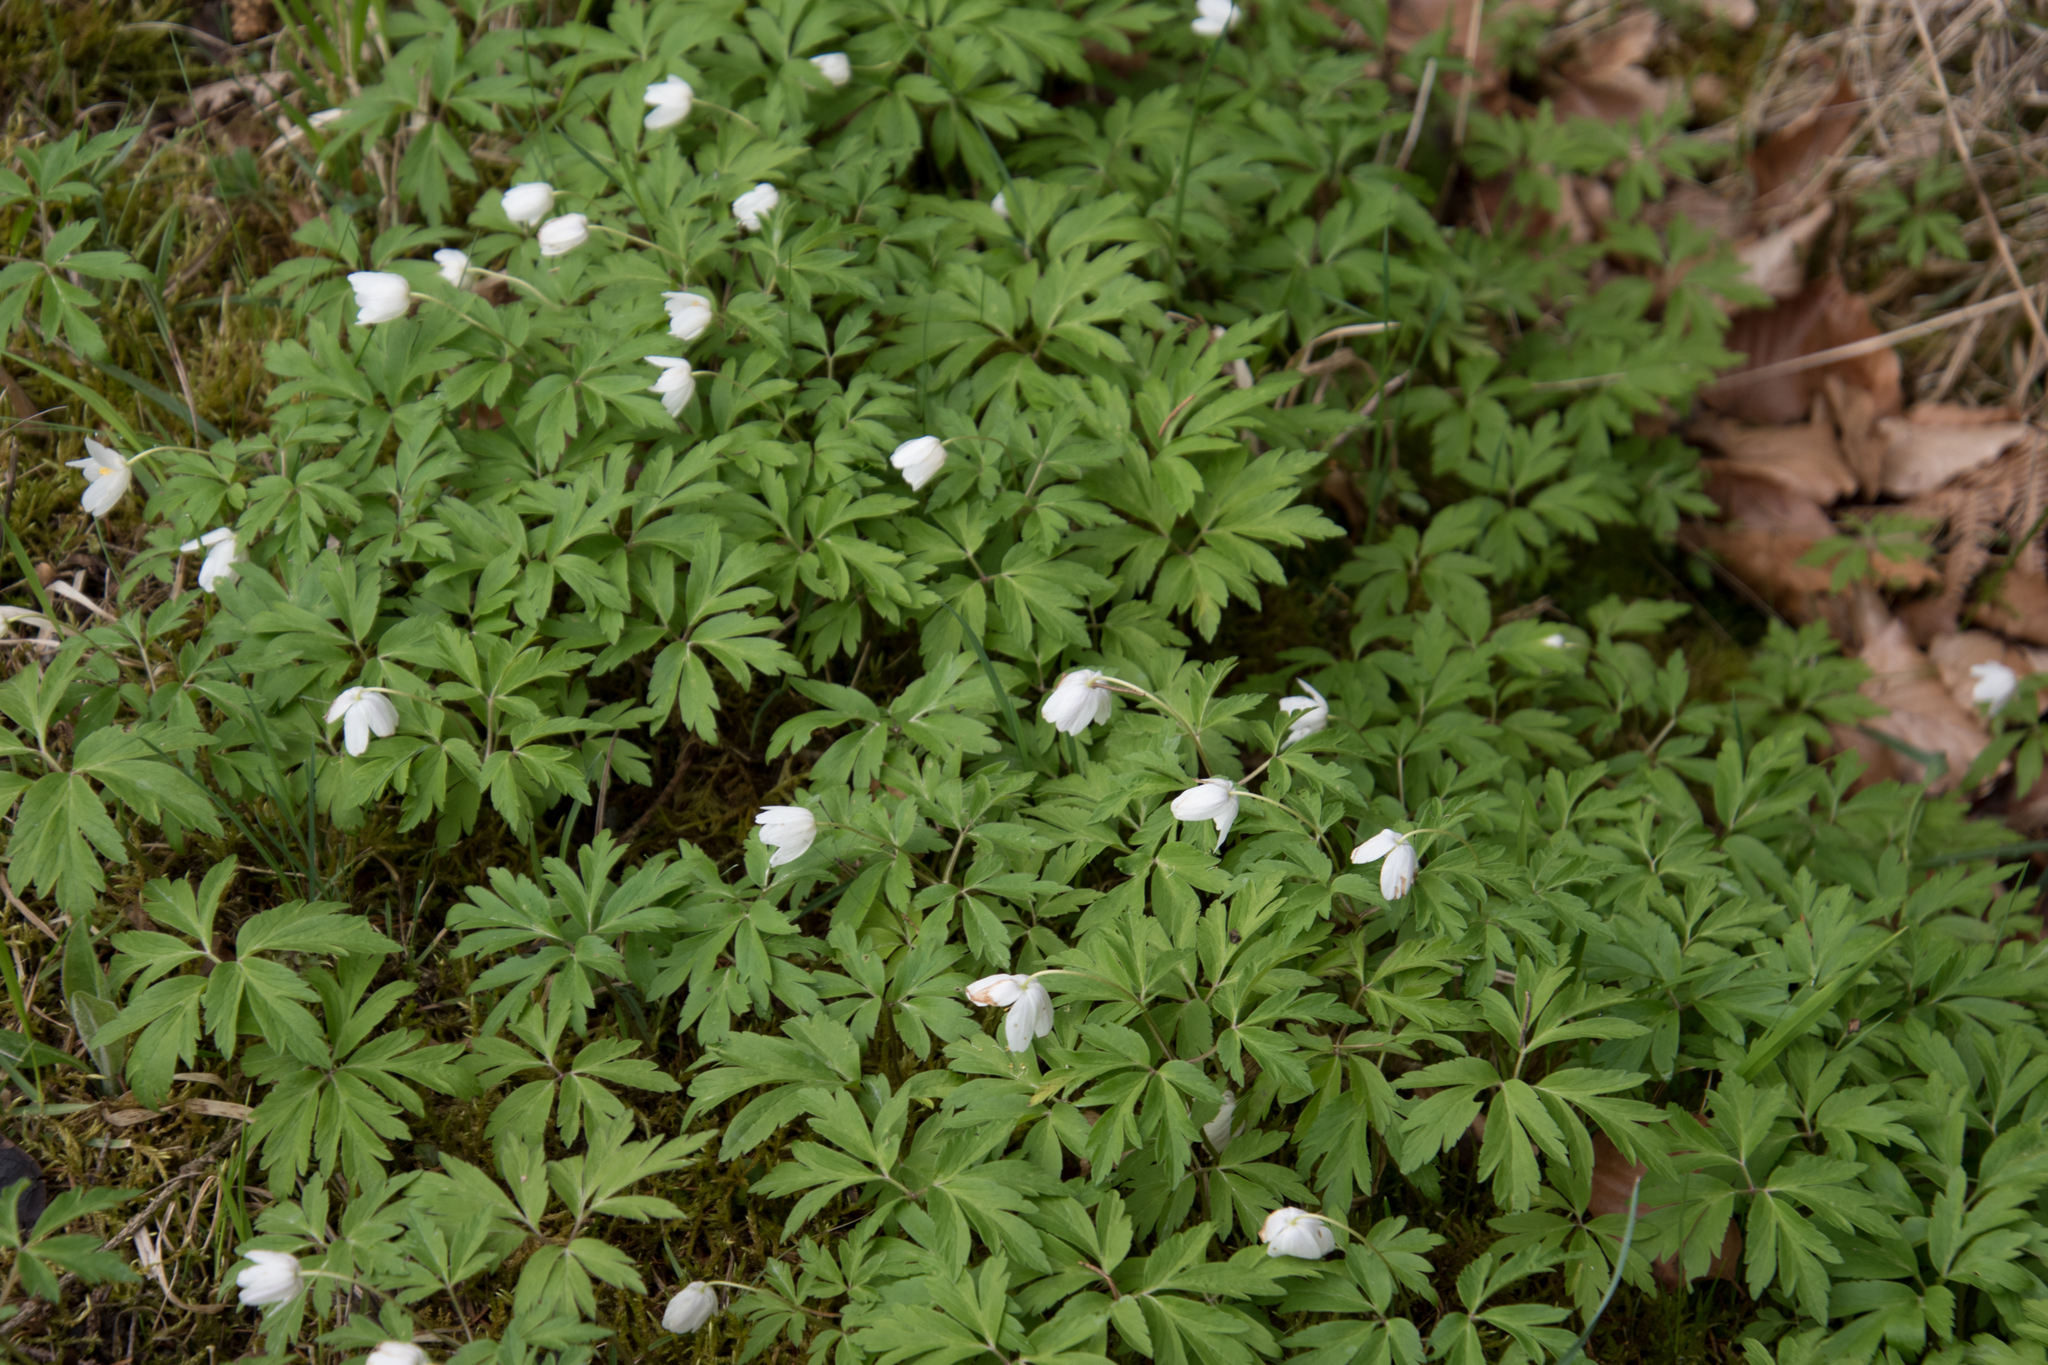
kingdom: Plantae
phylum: Tracheophyta
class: Magnoliopsida
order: Ranunculales
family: Ranunculaceae
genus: Anemone
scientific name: Anemone nemorosa
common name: Wood anemone
